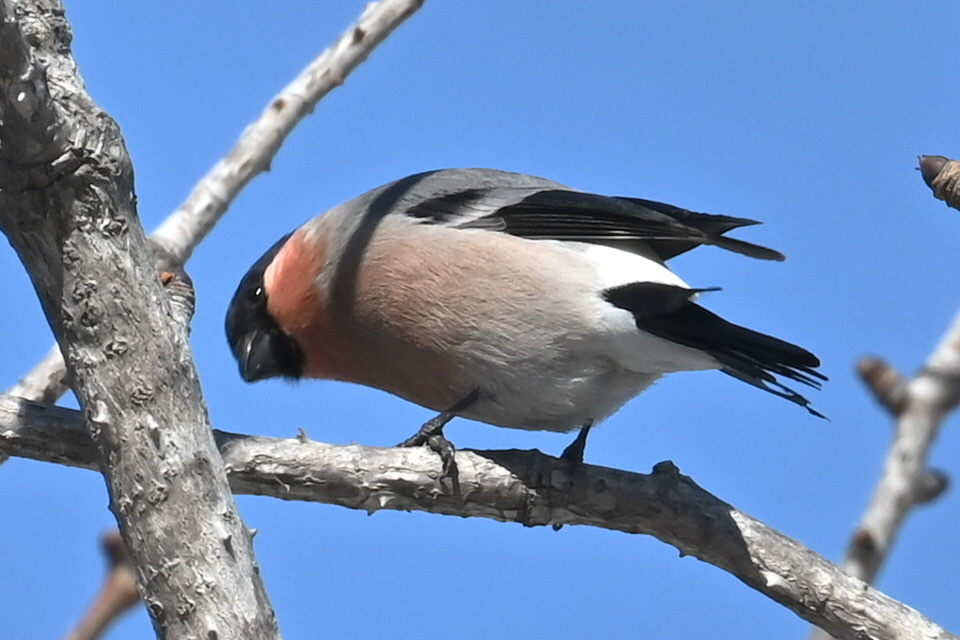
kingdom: Animalia
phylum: Chordata
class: Aves
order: Passeriformes
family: Fringillidae
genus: Pyrrhula
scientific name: Pyrrhula pyrrhula
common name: Eurasian bullfinch
